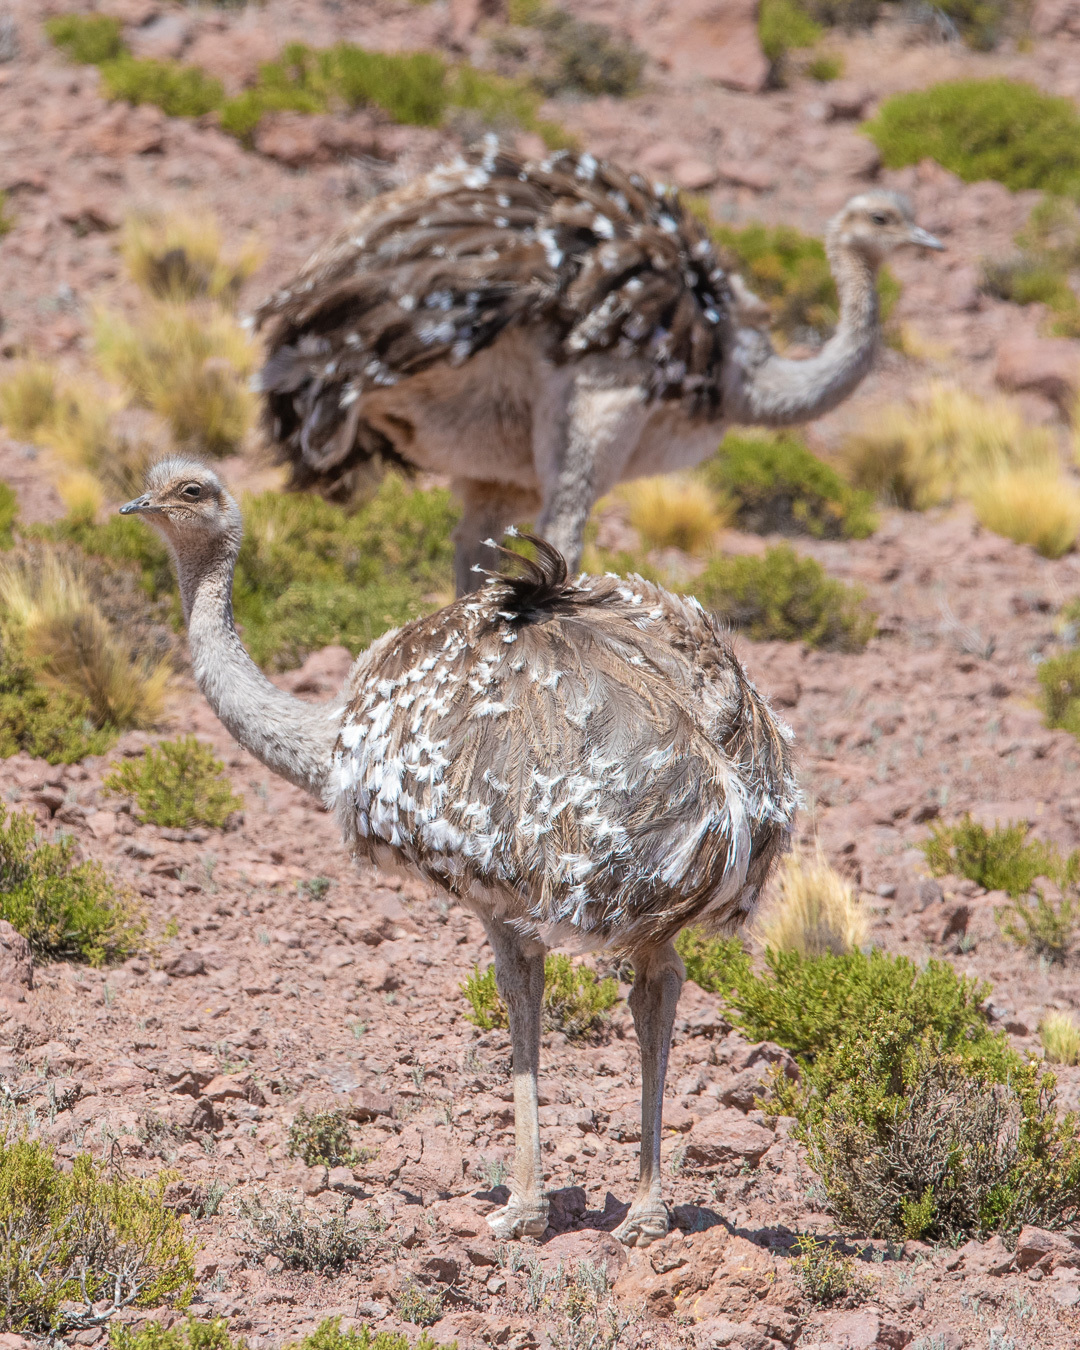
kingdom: Animalia
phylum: Chordata
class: Aves
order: Rheiformes
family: Rheidae
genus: Rhea
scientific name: Rhea pennata
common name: Lesser rhea
